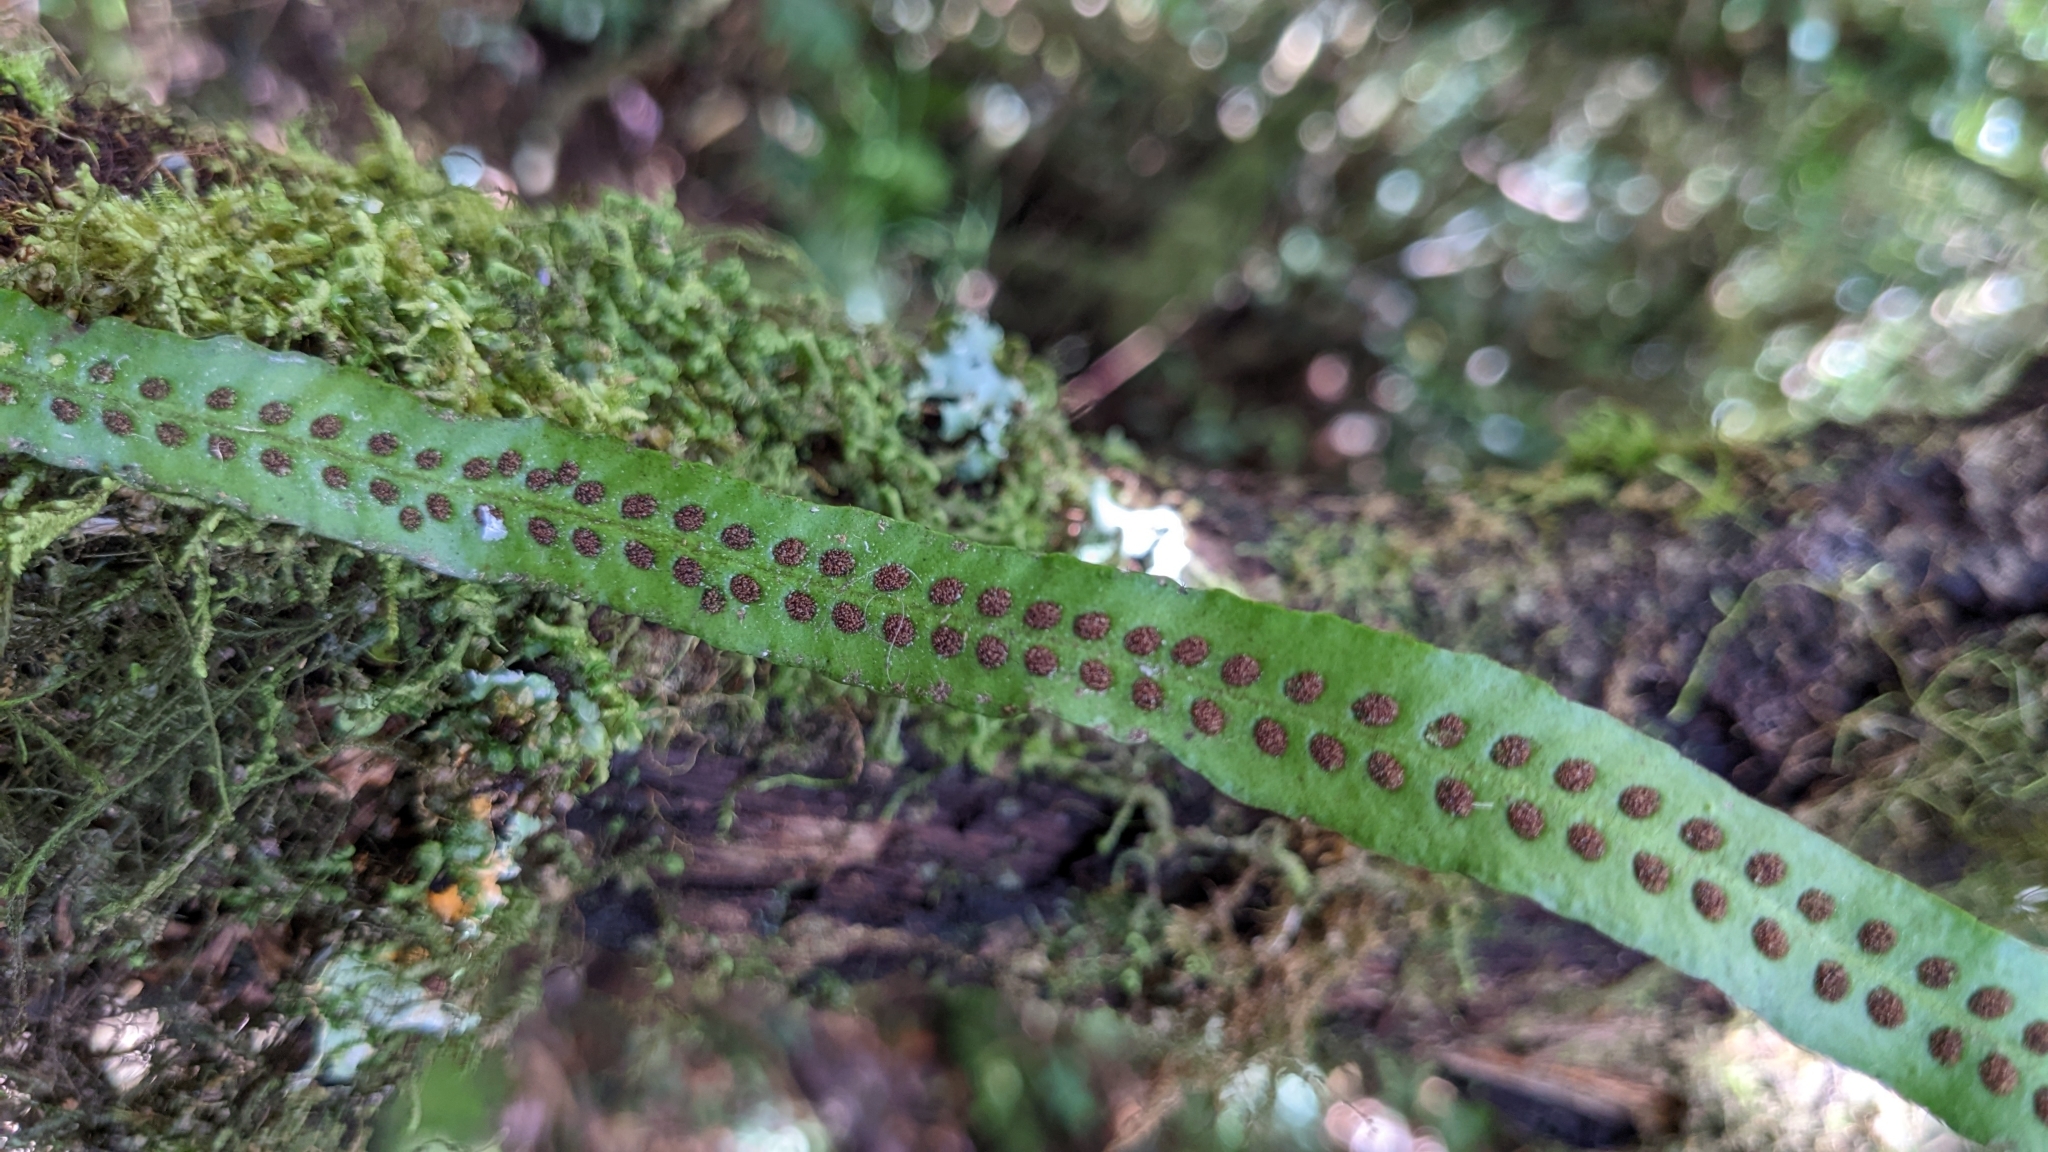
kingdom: Plantae
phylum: Tracheophyta
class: Polypodiopsida
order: Polypodiales
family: Polypodiaceae
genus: Oreogrammitis
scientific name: Oreogrammitis congener
